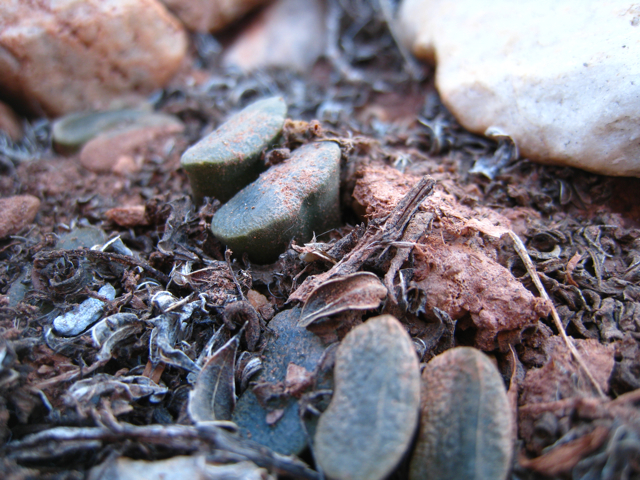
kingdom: Plantae
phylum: Tracheophyta
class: Liliopsida
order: Asparagales
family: Asphodelaceae
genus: Haworthia
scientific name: Haworthia truncata
